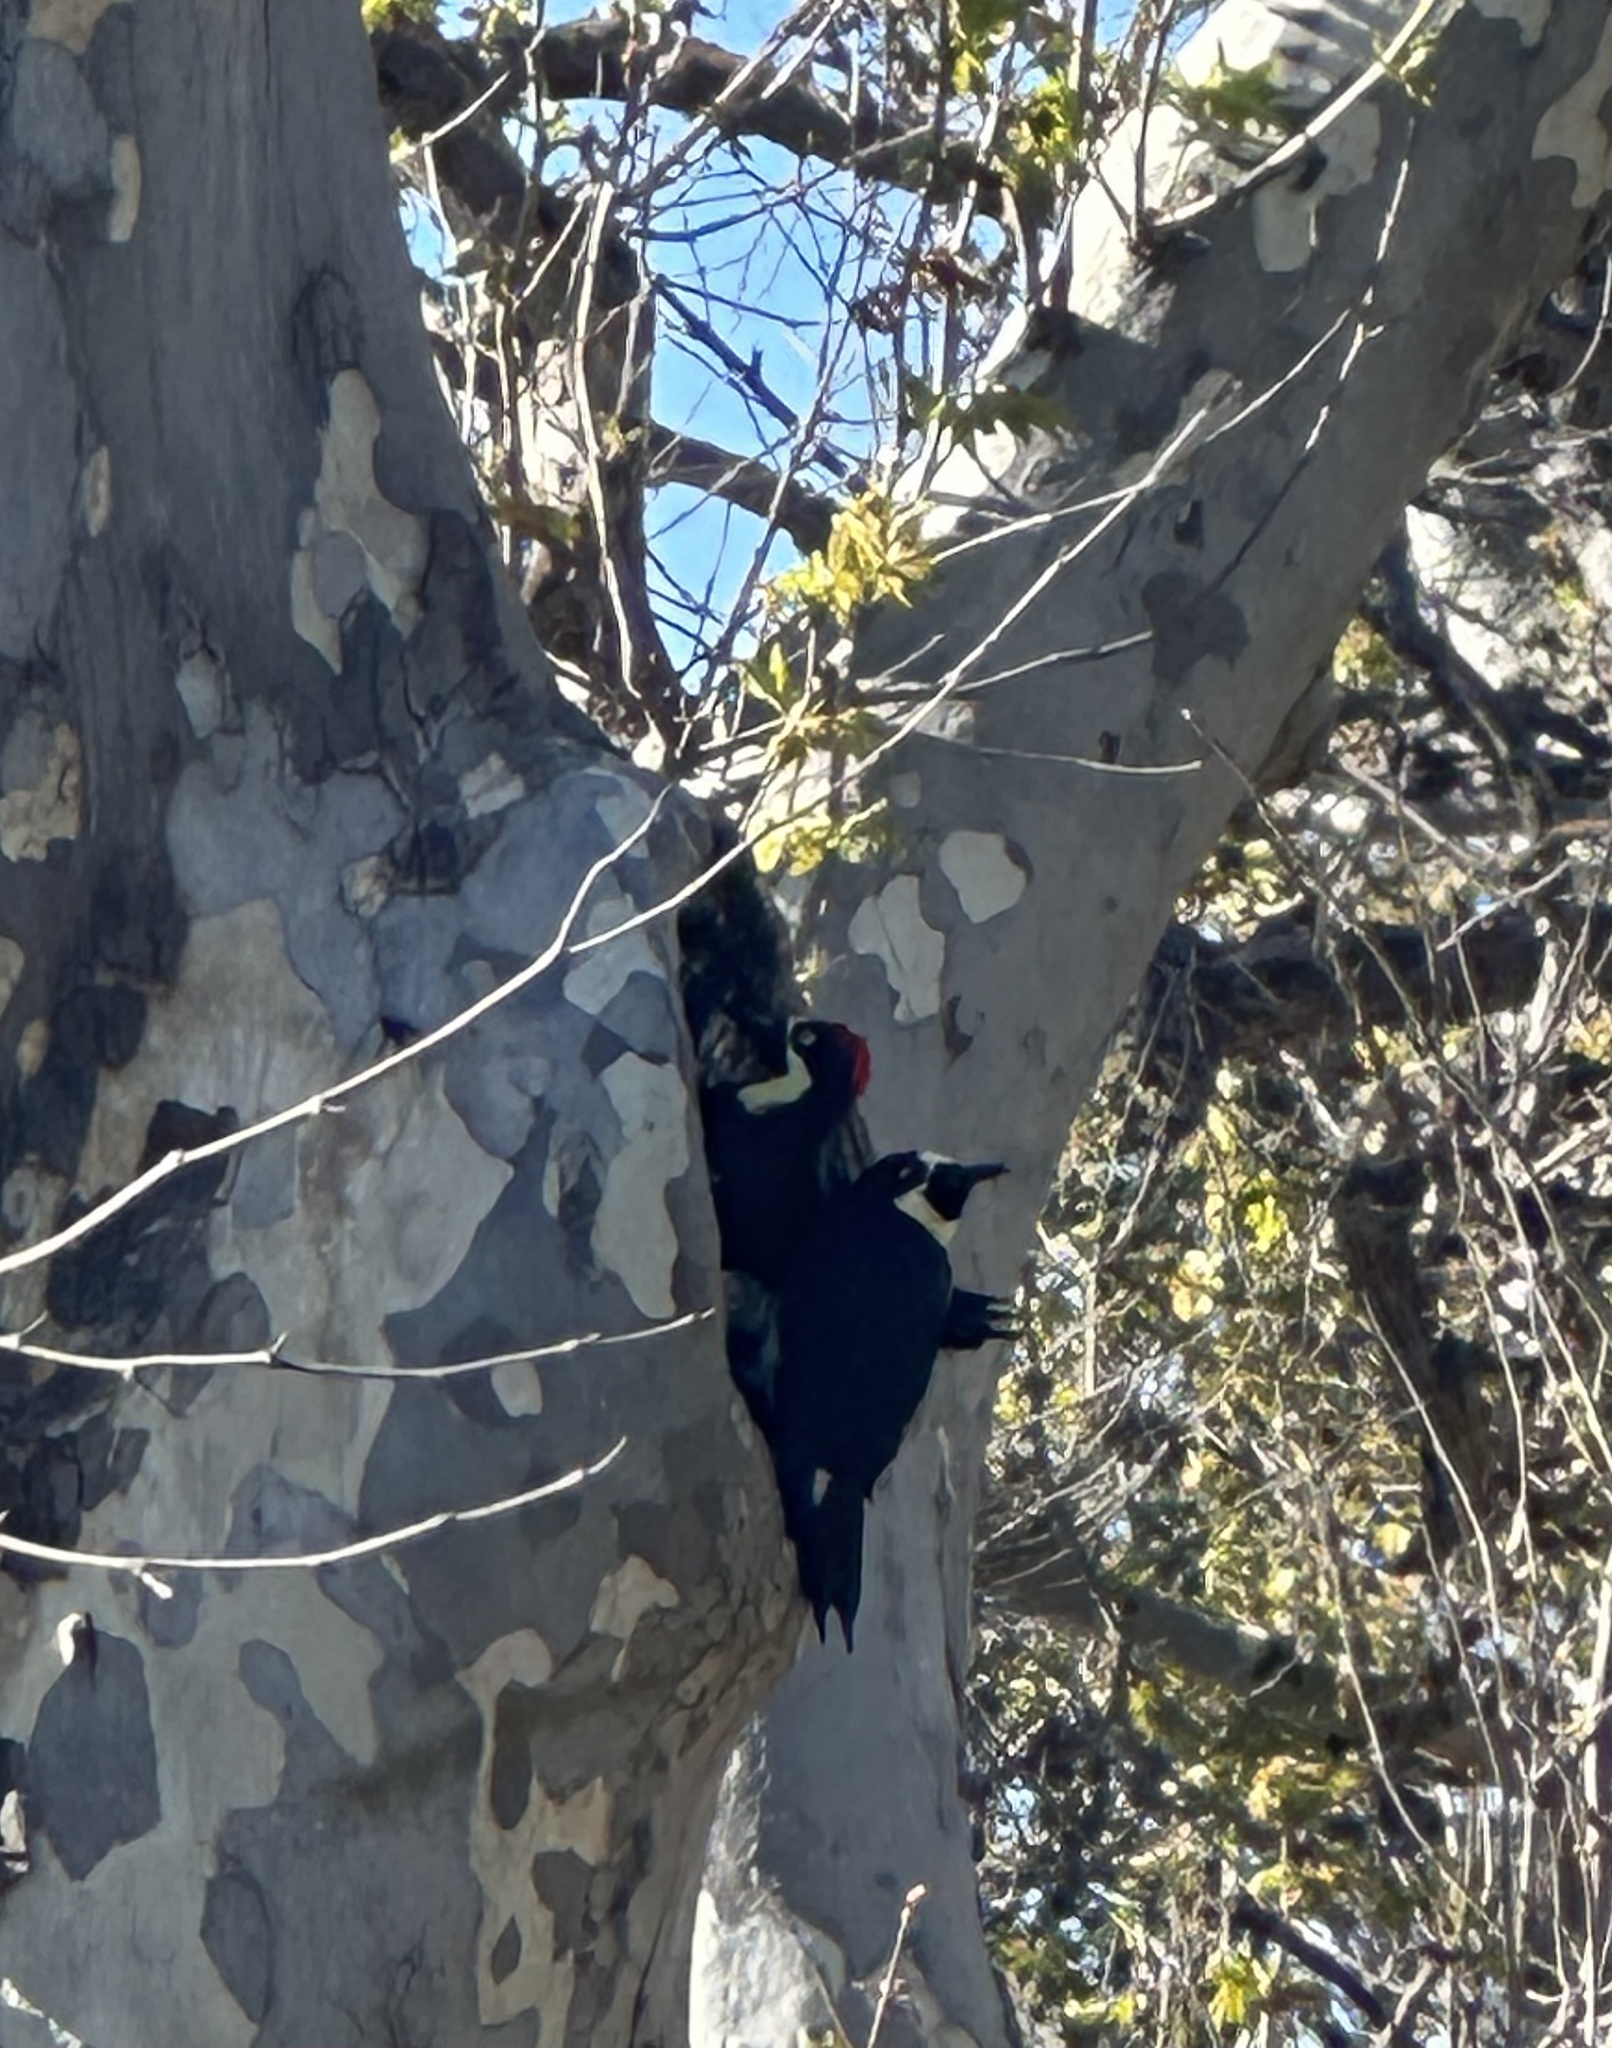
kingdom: Animalia
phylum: Chordata
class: Aves
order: Piciformes
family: Picidae
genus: Melanerpes
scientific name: Melanerpes formicivorus
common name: Acorn woodpecker
